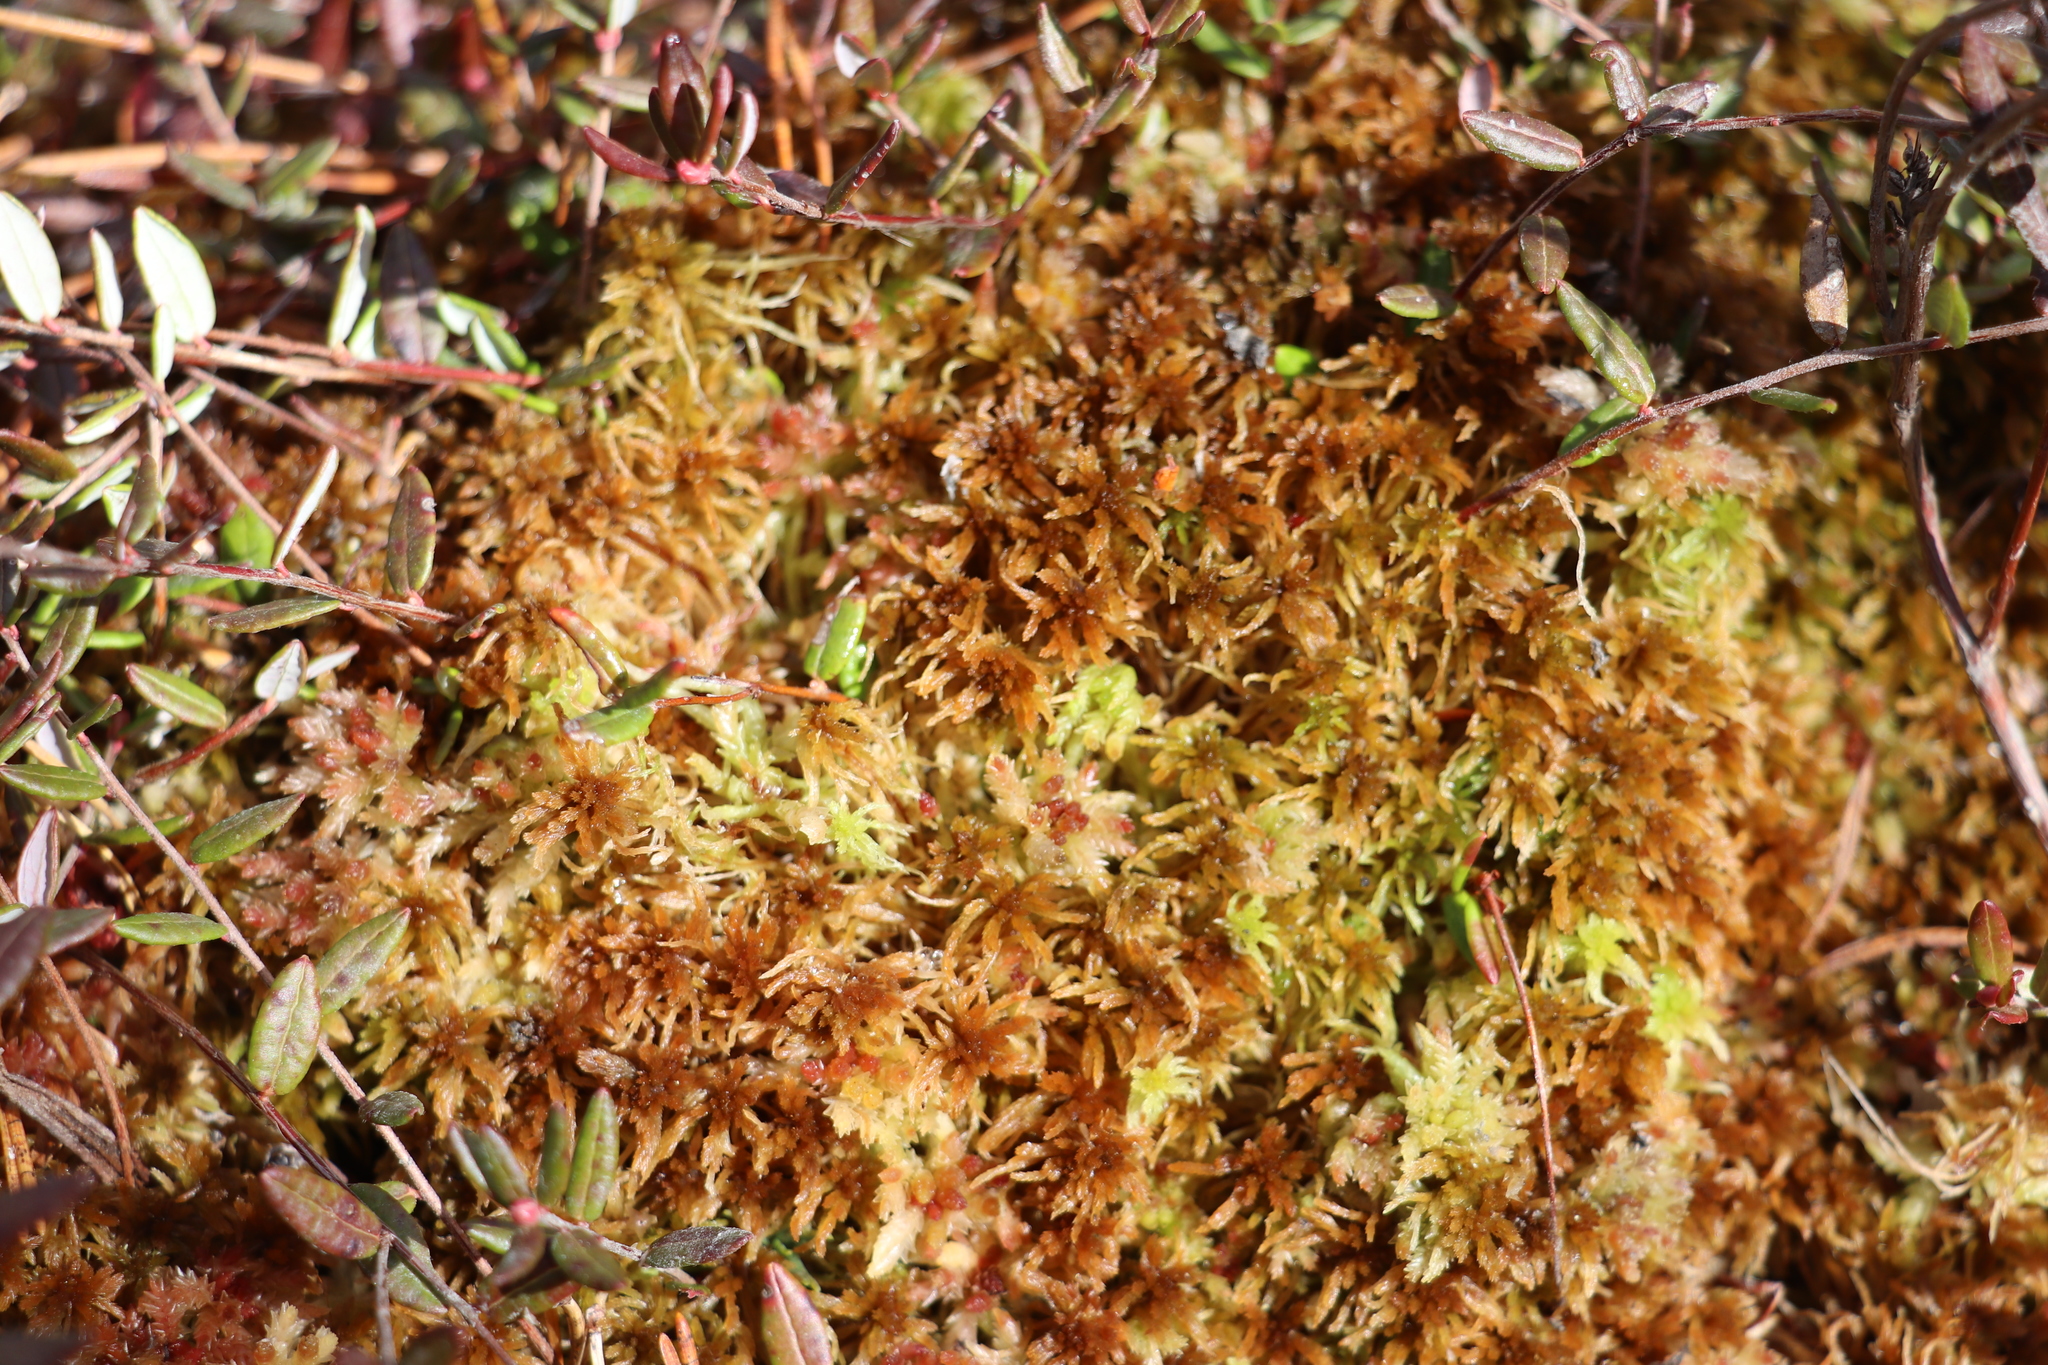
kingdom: Plantae
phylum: Bryophyta
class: Sphagnopsida
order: Sphagnales
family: Sphagnaceae
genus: Sphagnum
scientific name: Sphagnum fuscum
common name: Brown peat moss
